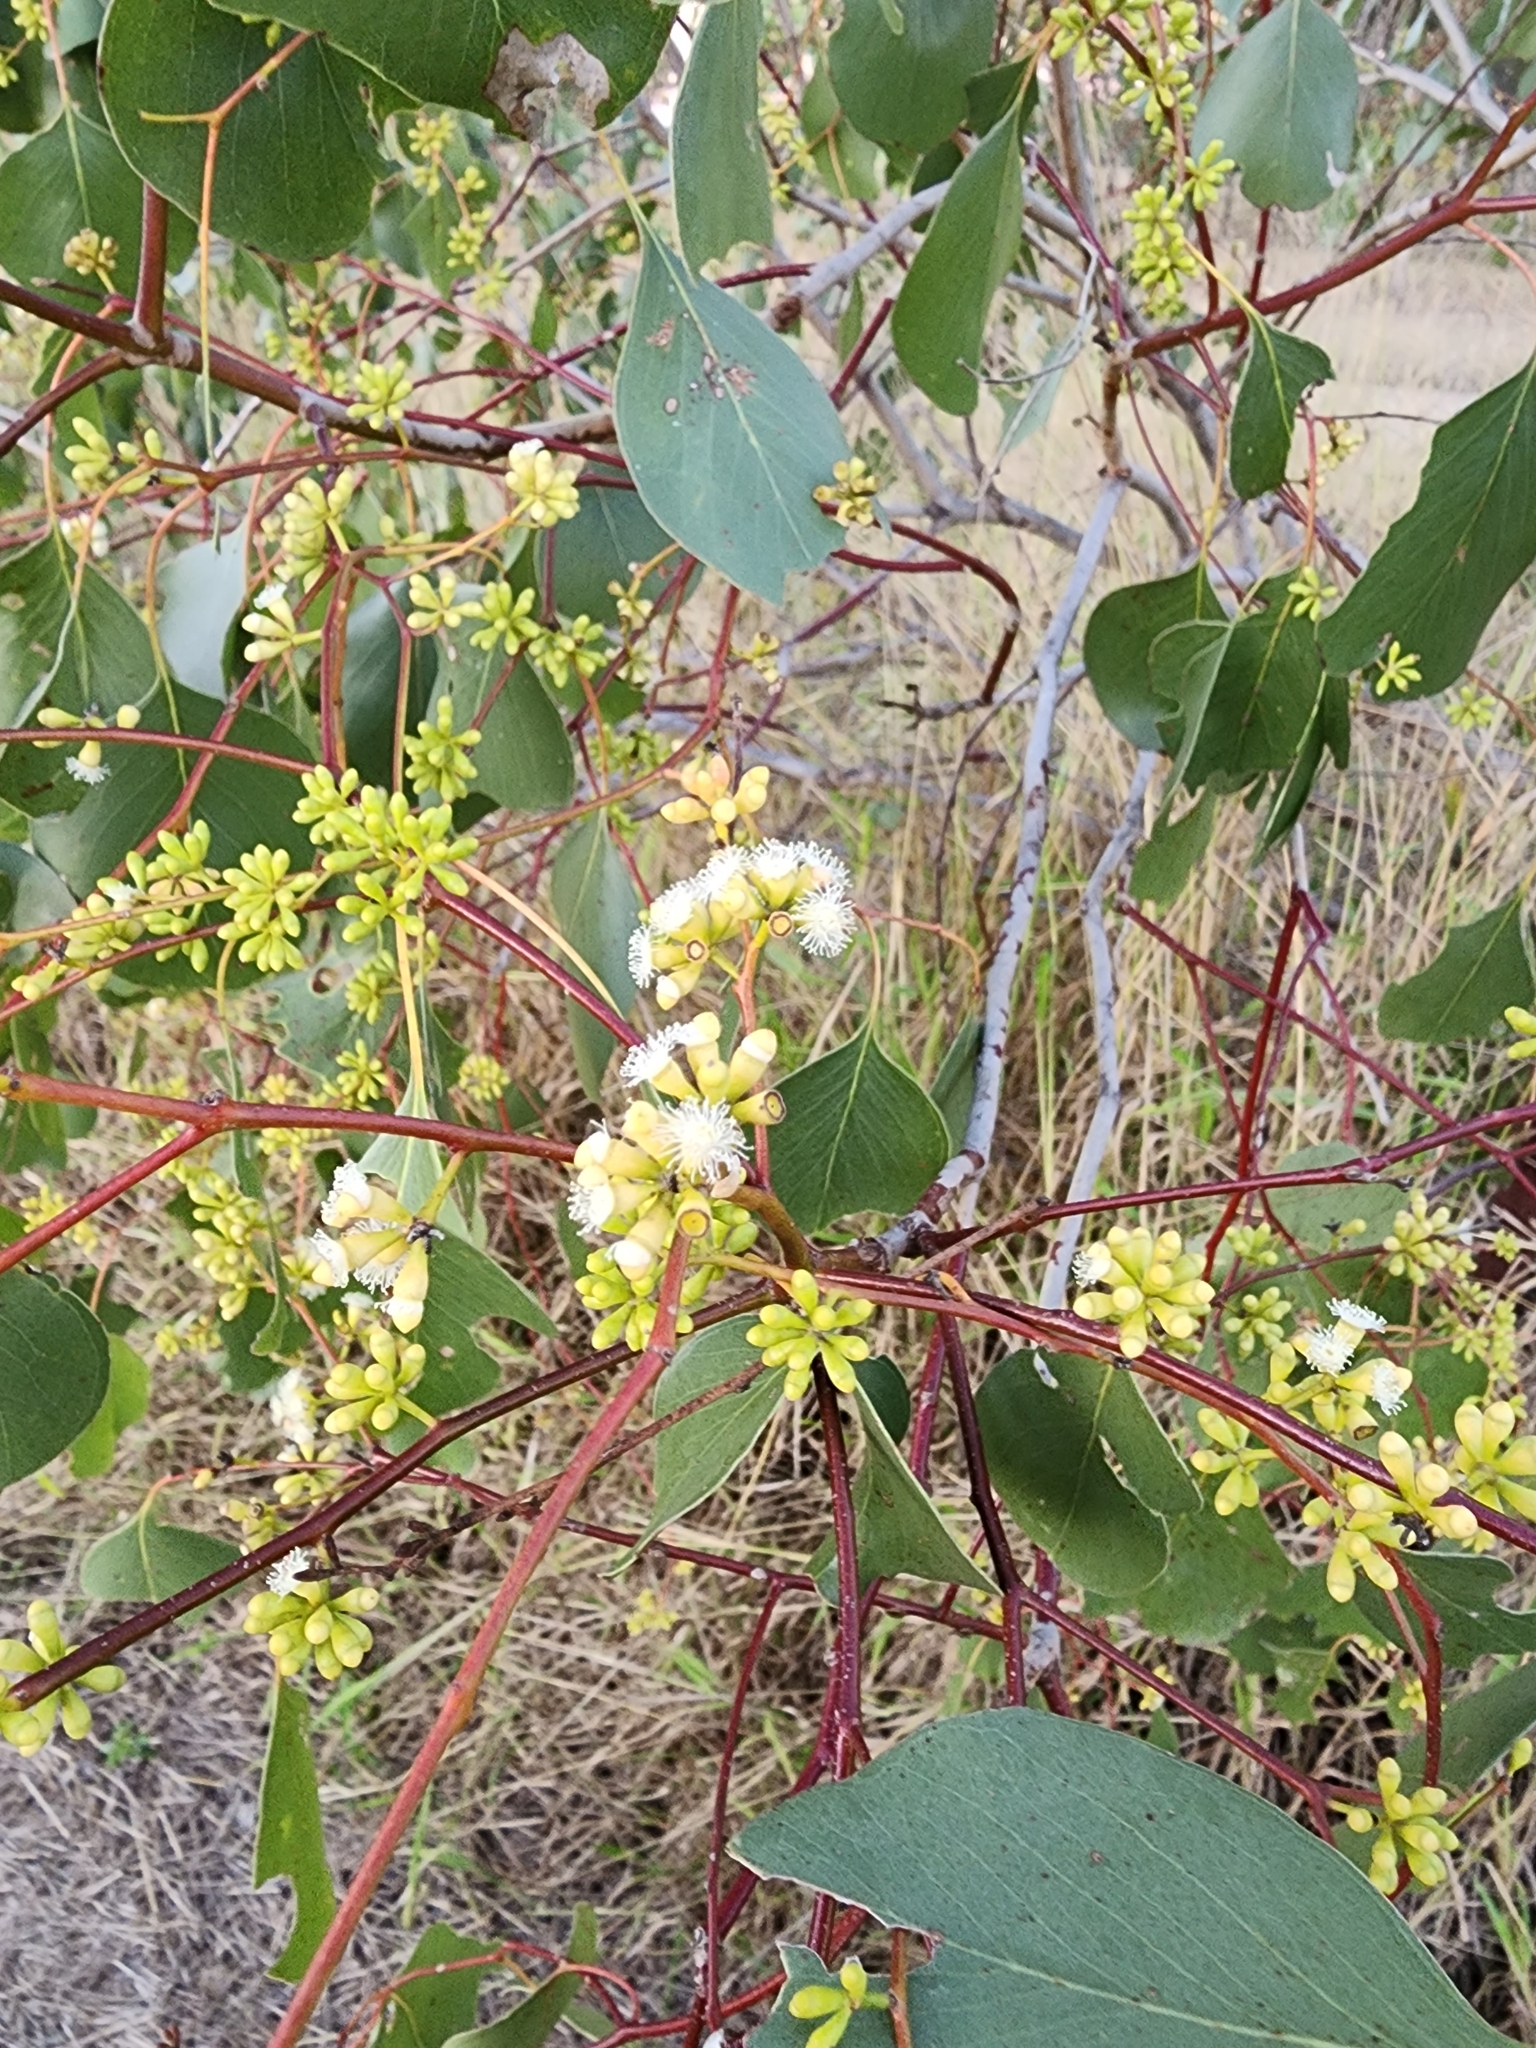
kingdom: Plantae
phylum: Tracheophyta
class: Magnoliopsida
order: Myrtales
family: Myrtaceae
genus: Eucalyptus
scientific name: Eucalyptus populnea
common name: Bimble box
